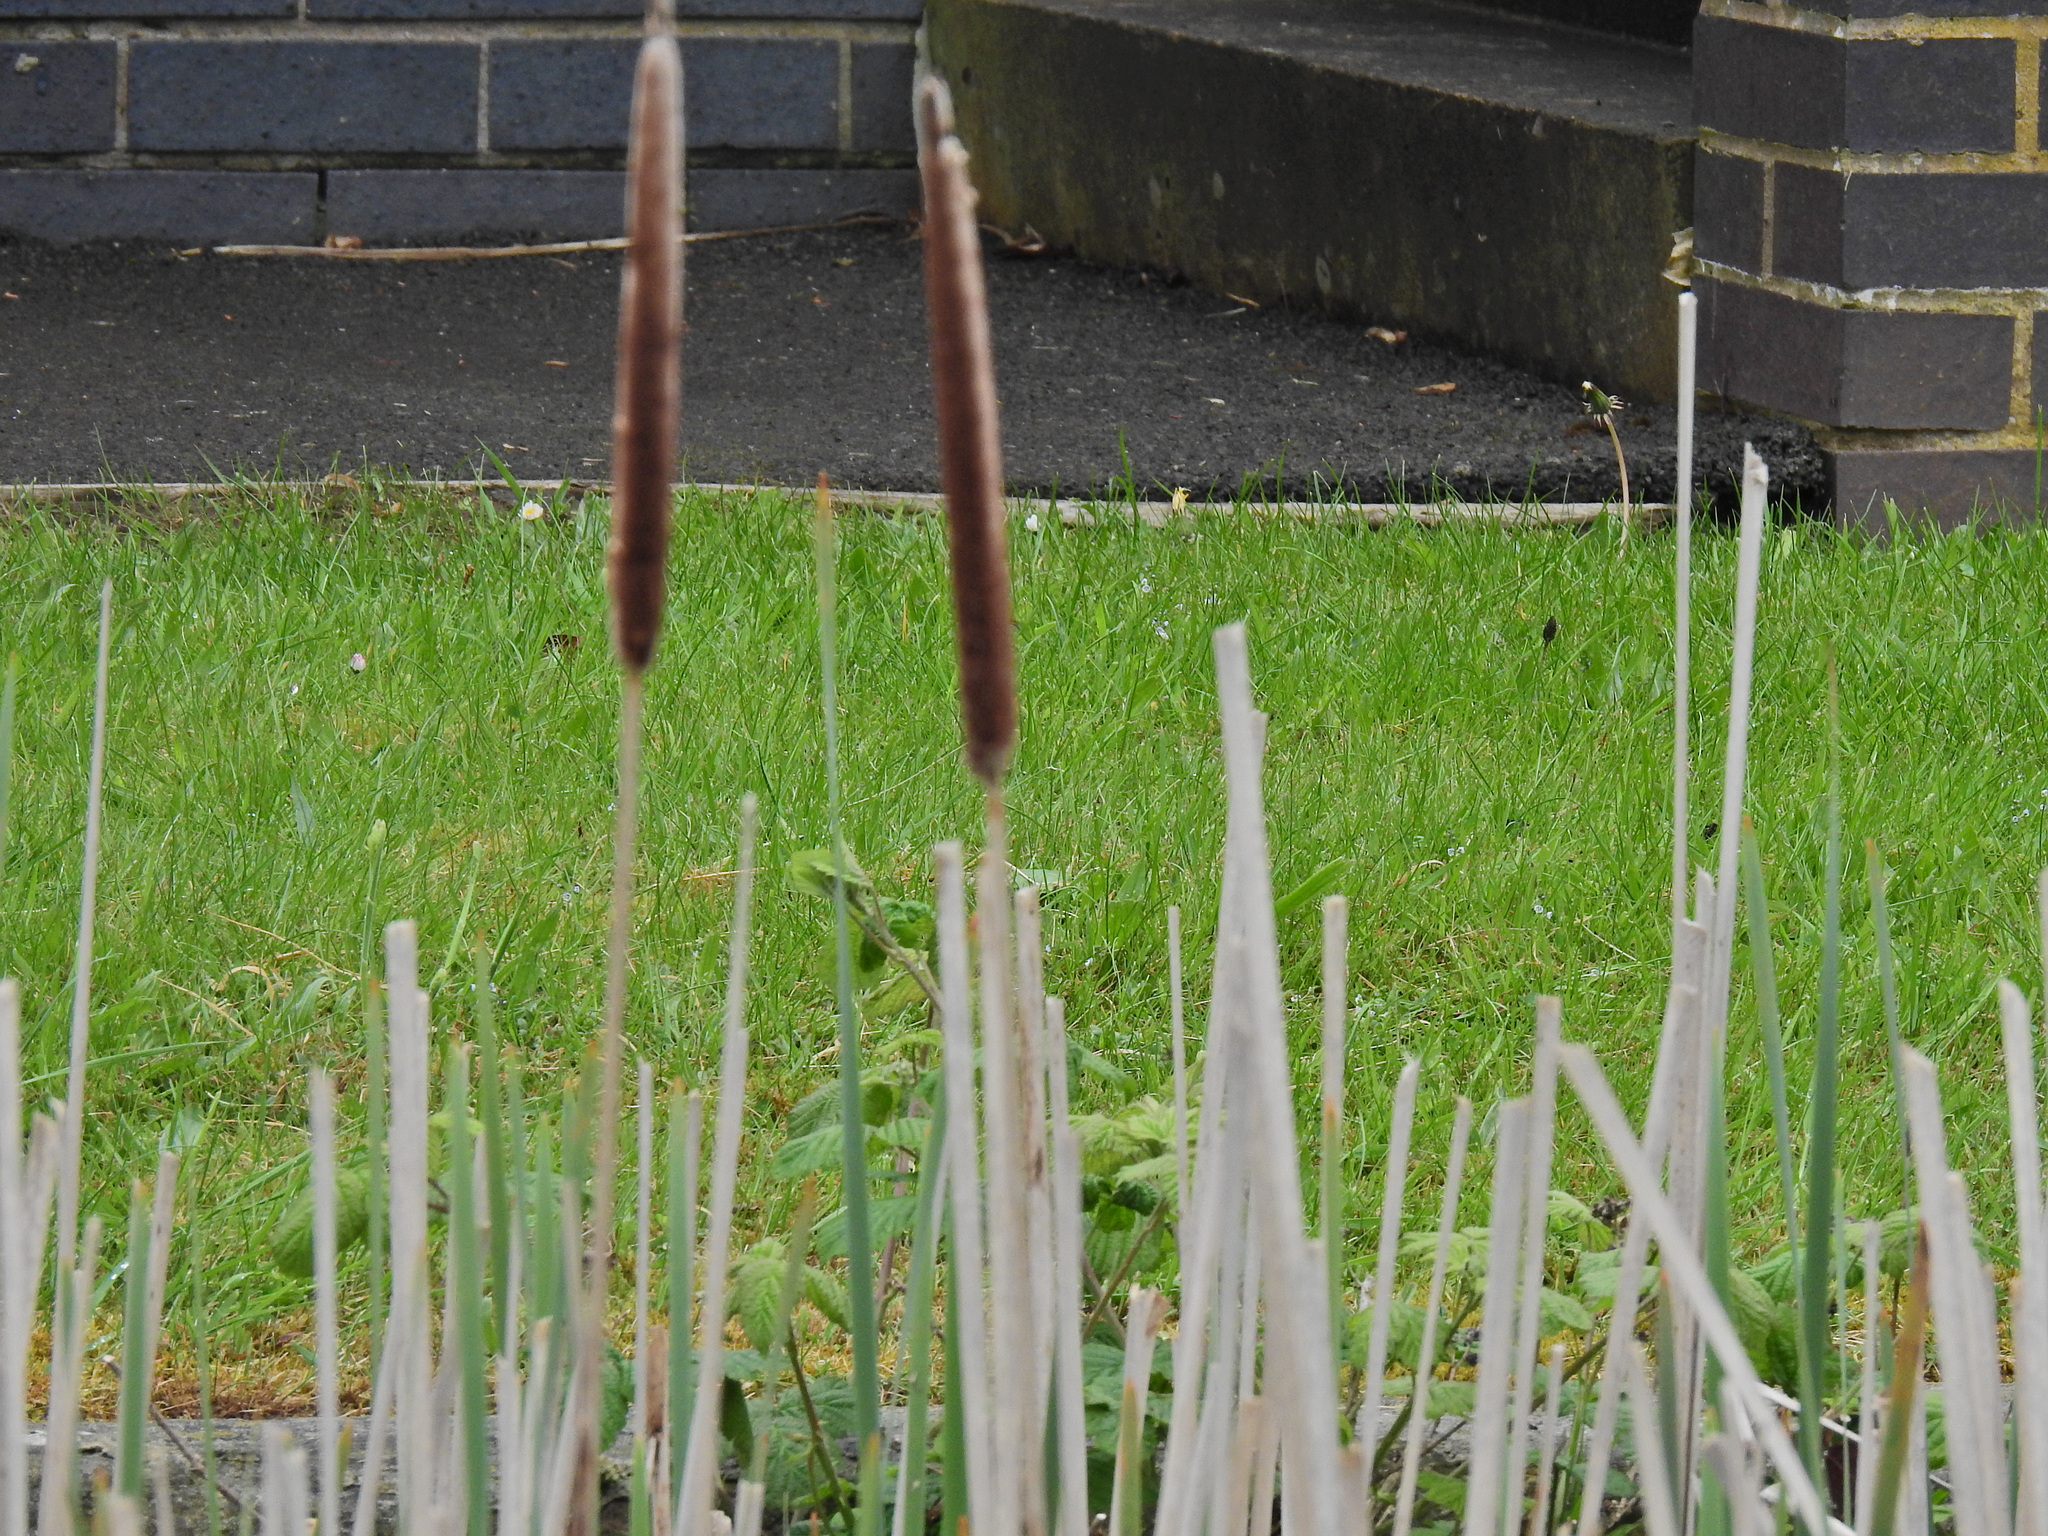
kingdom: Plantae
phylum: Tracheophyta
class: Liliopsida
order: Poales
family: Typhaceae
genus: Typha
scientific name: Typha latifolia
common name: Broadleaf cattail
